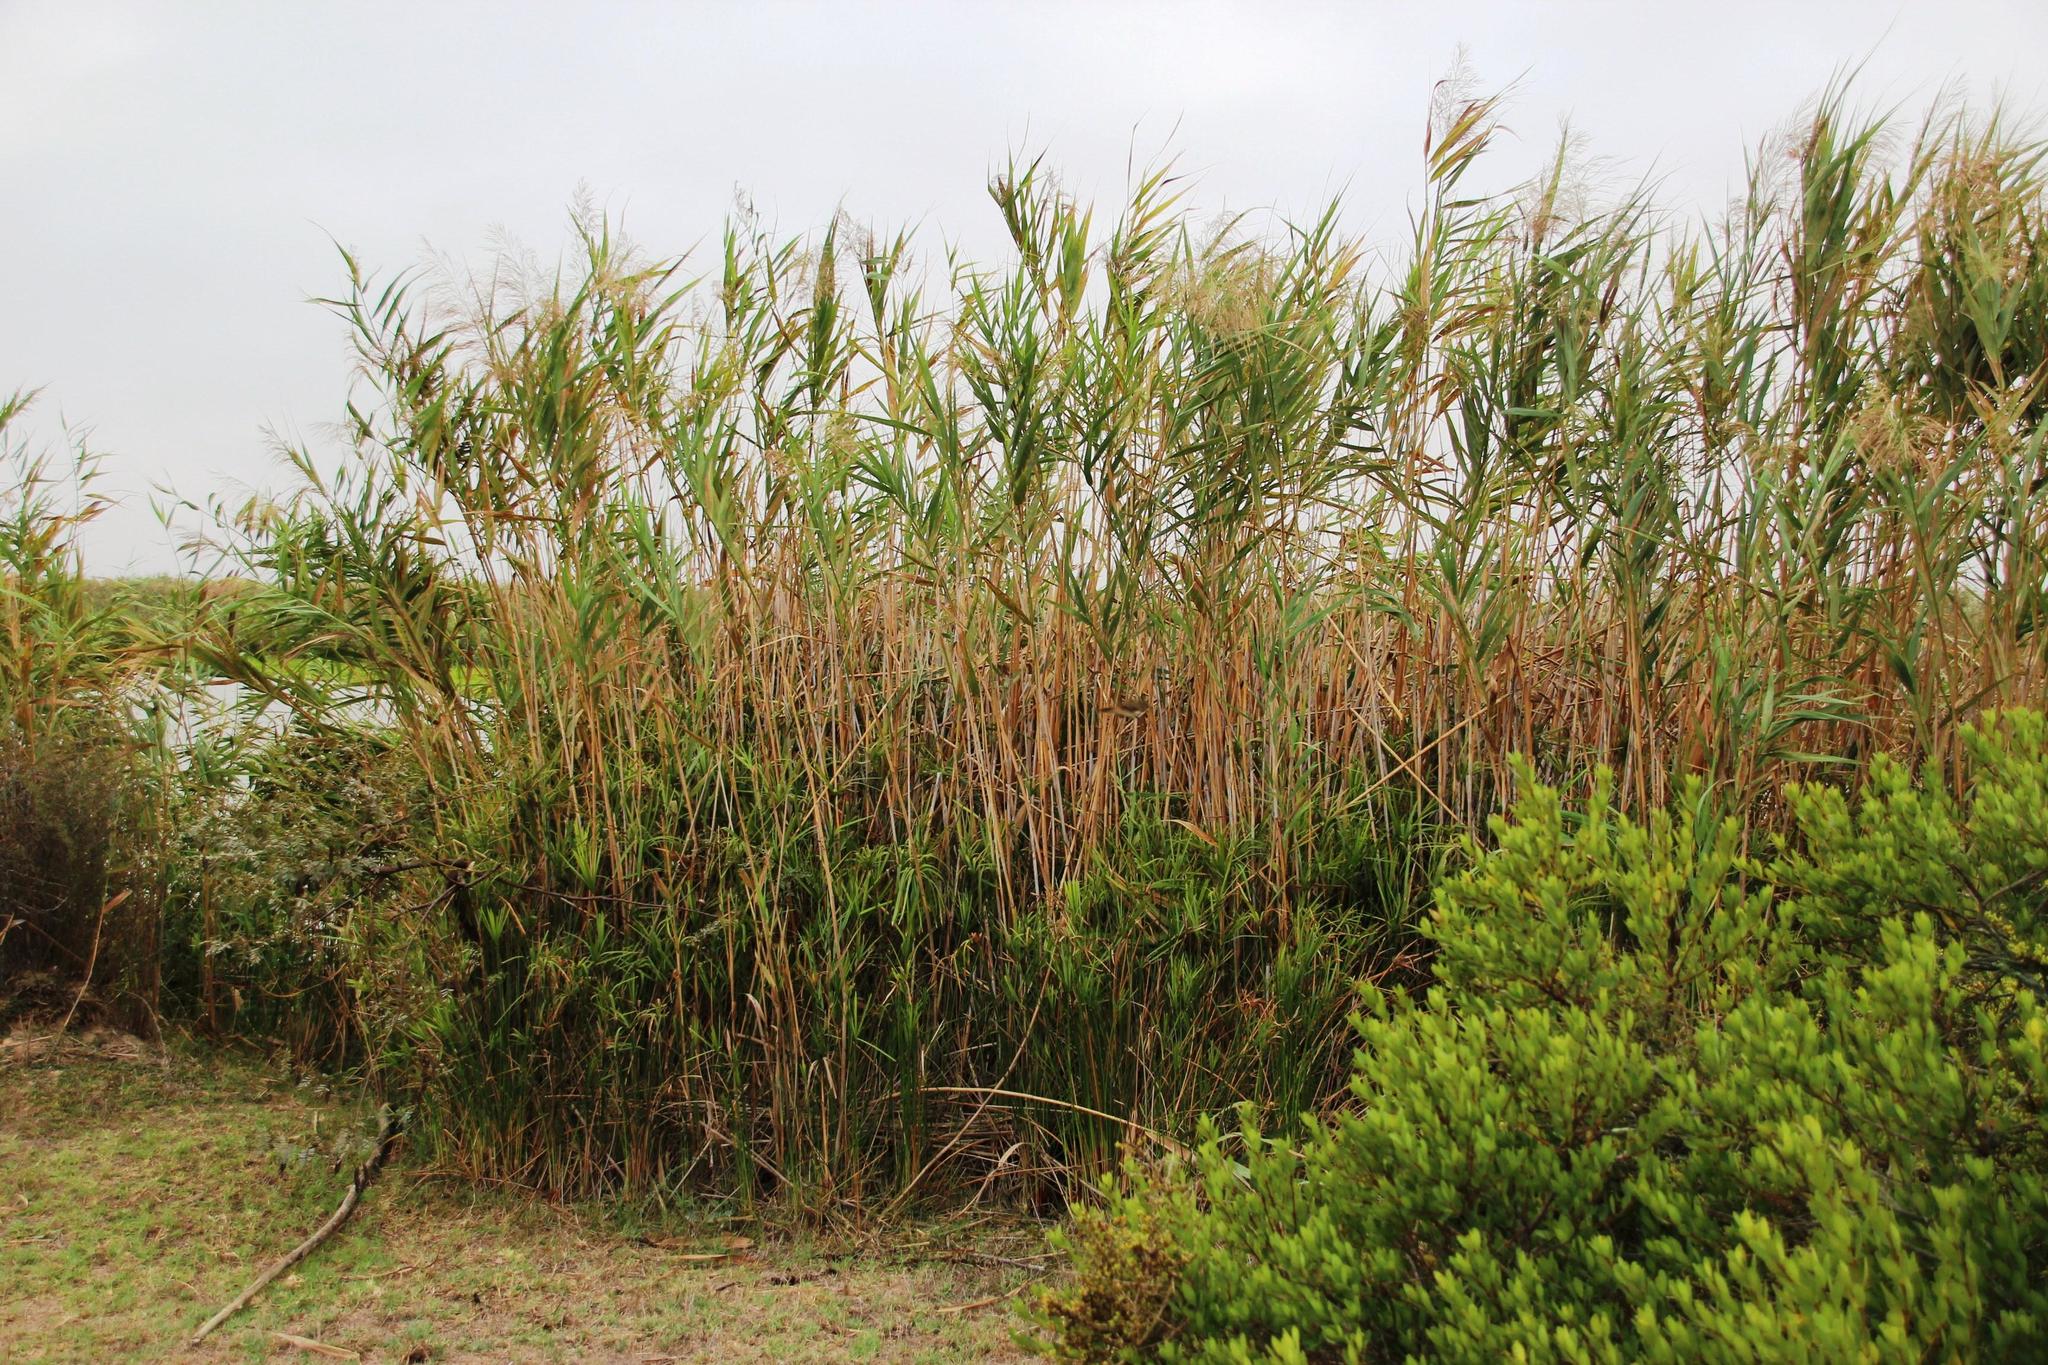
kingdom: Plantae
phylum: Tracheophyta
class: Liliopsida
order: Poales
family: Poaceae
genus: Phragmites
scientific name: Phragmites australis
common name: Common reed
